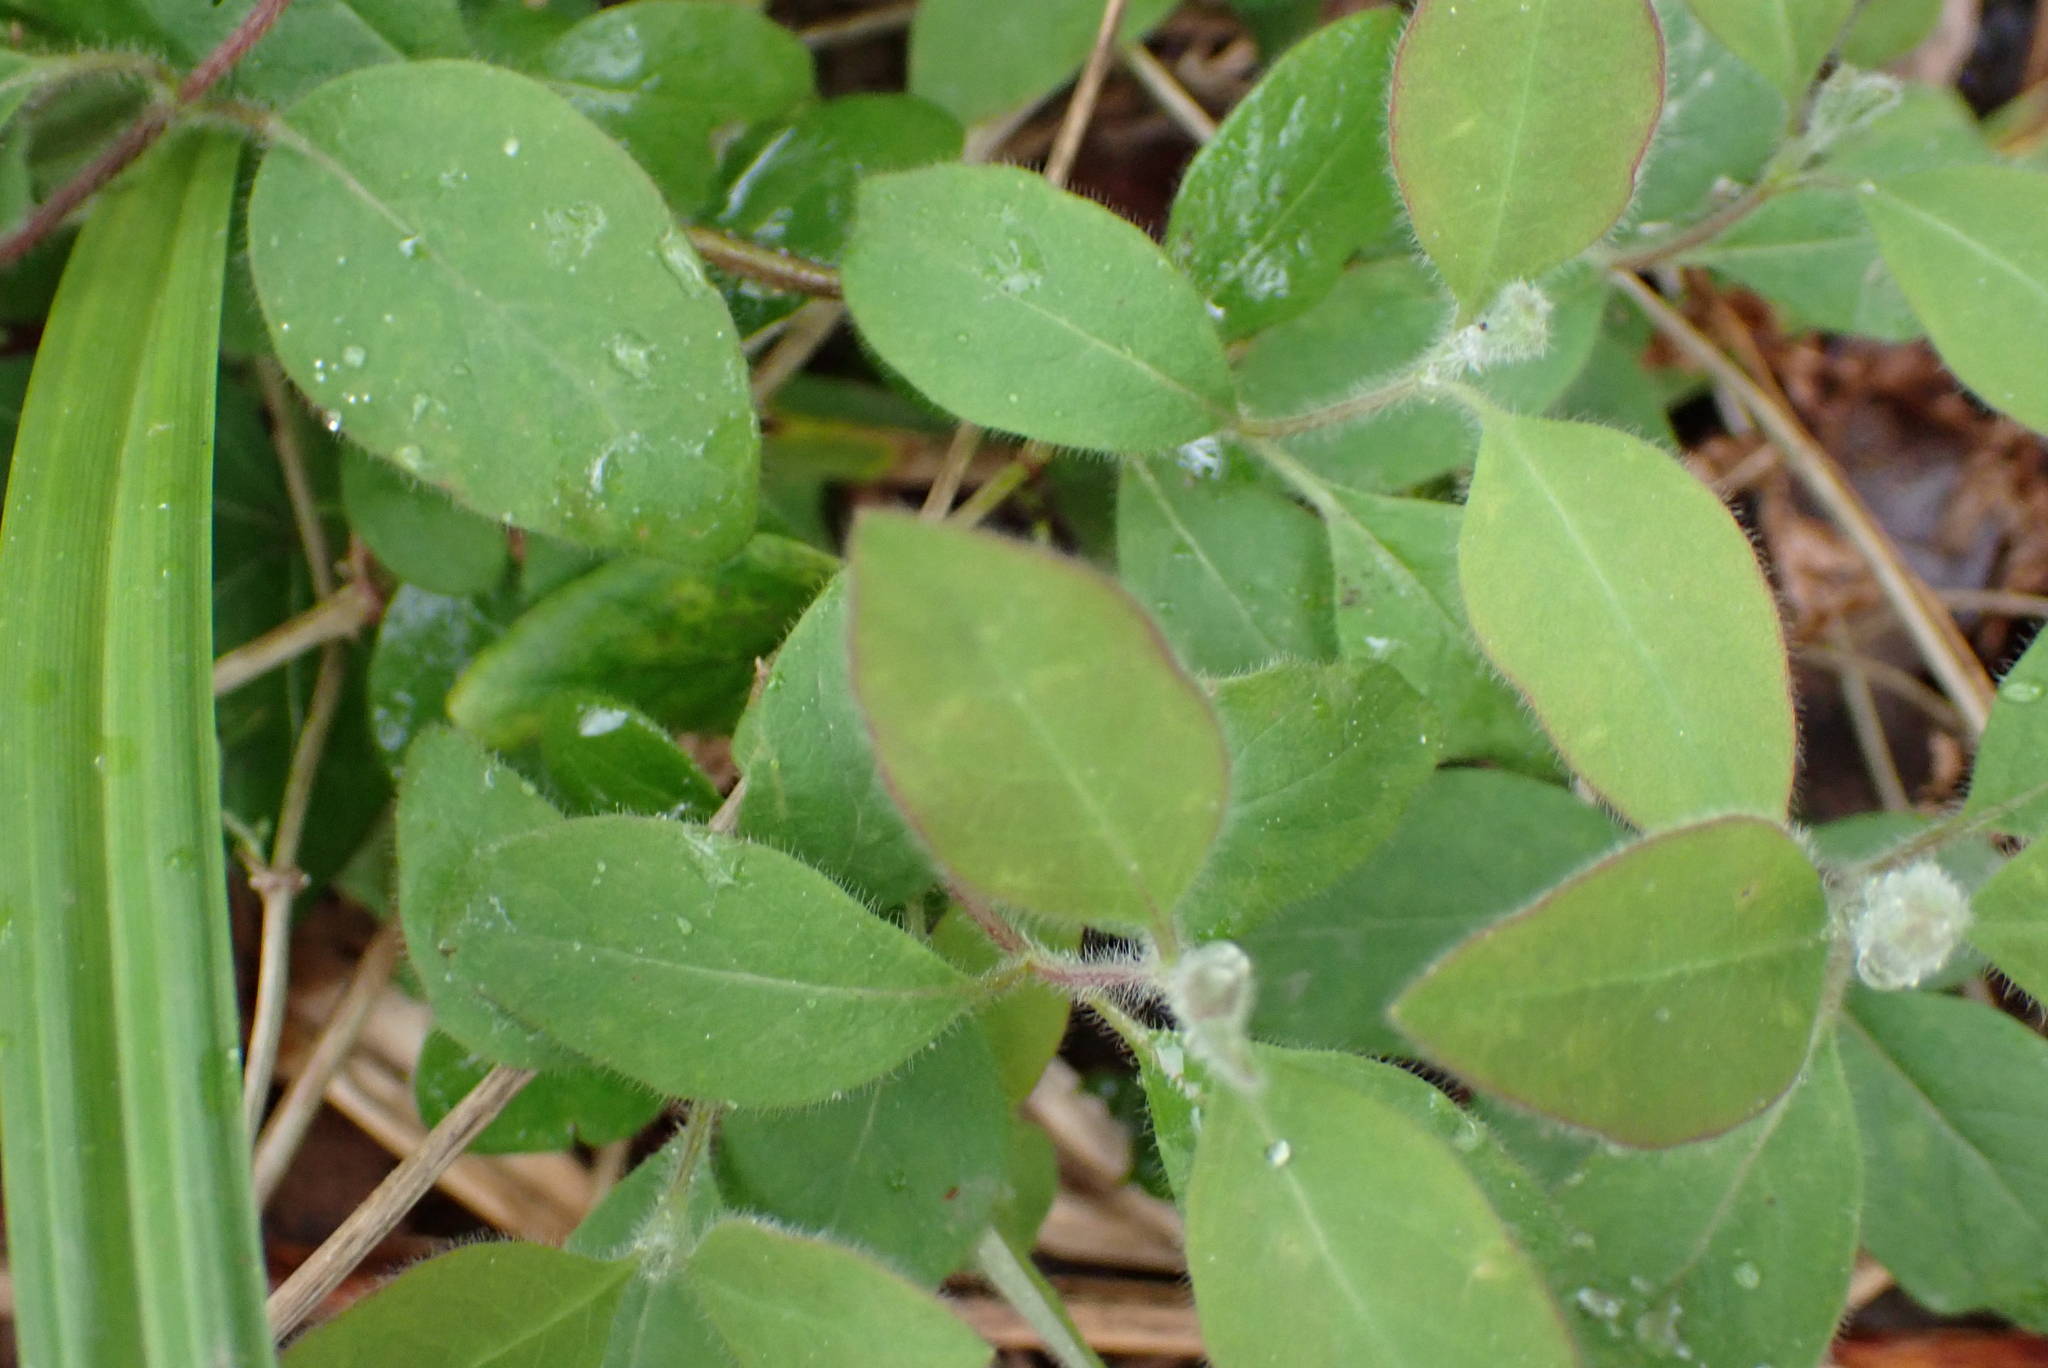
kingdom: Plantae
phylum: Tracheophyta
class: Magnoliopsida
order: Dipsacales
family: Caprifoliaceae
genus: Lonicera
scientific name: Lonicera periclymenum
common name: European honeysuckle
